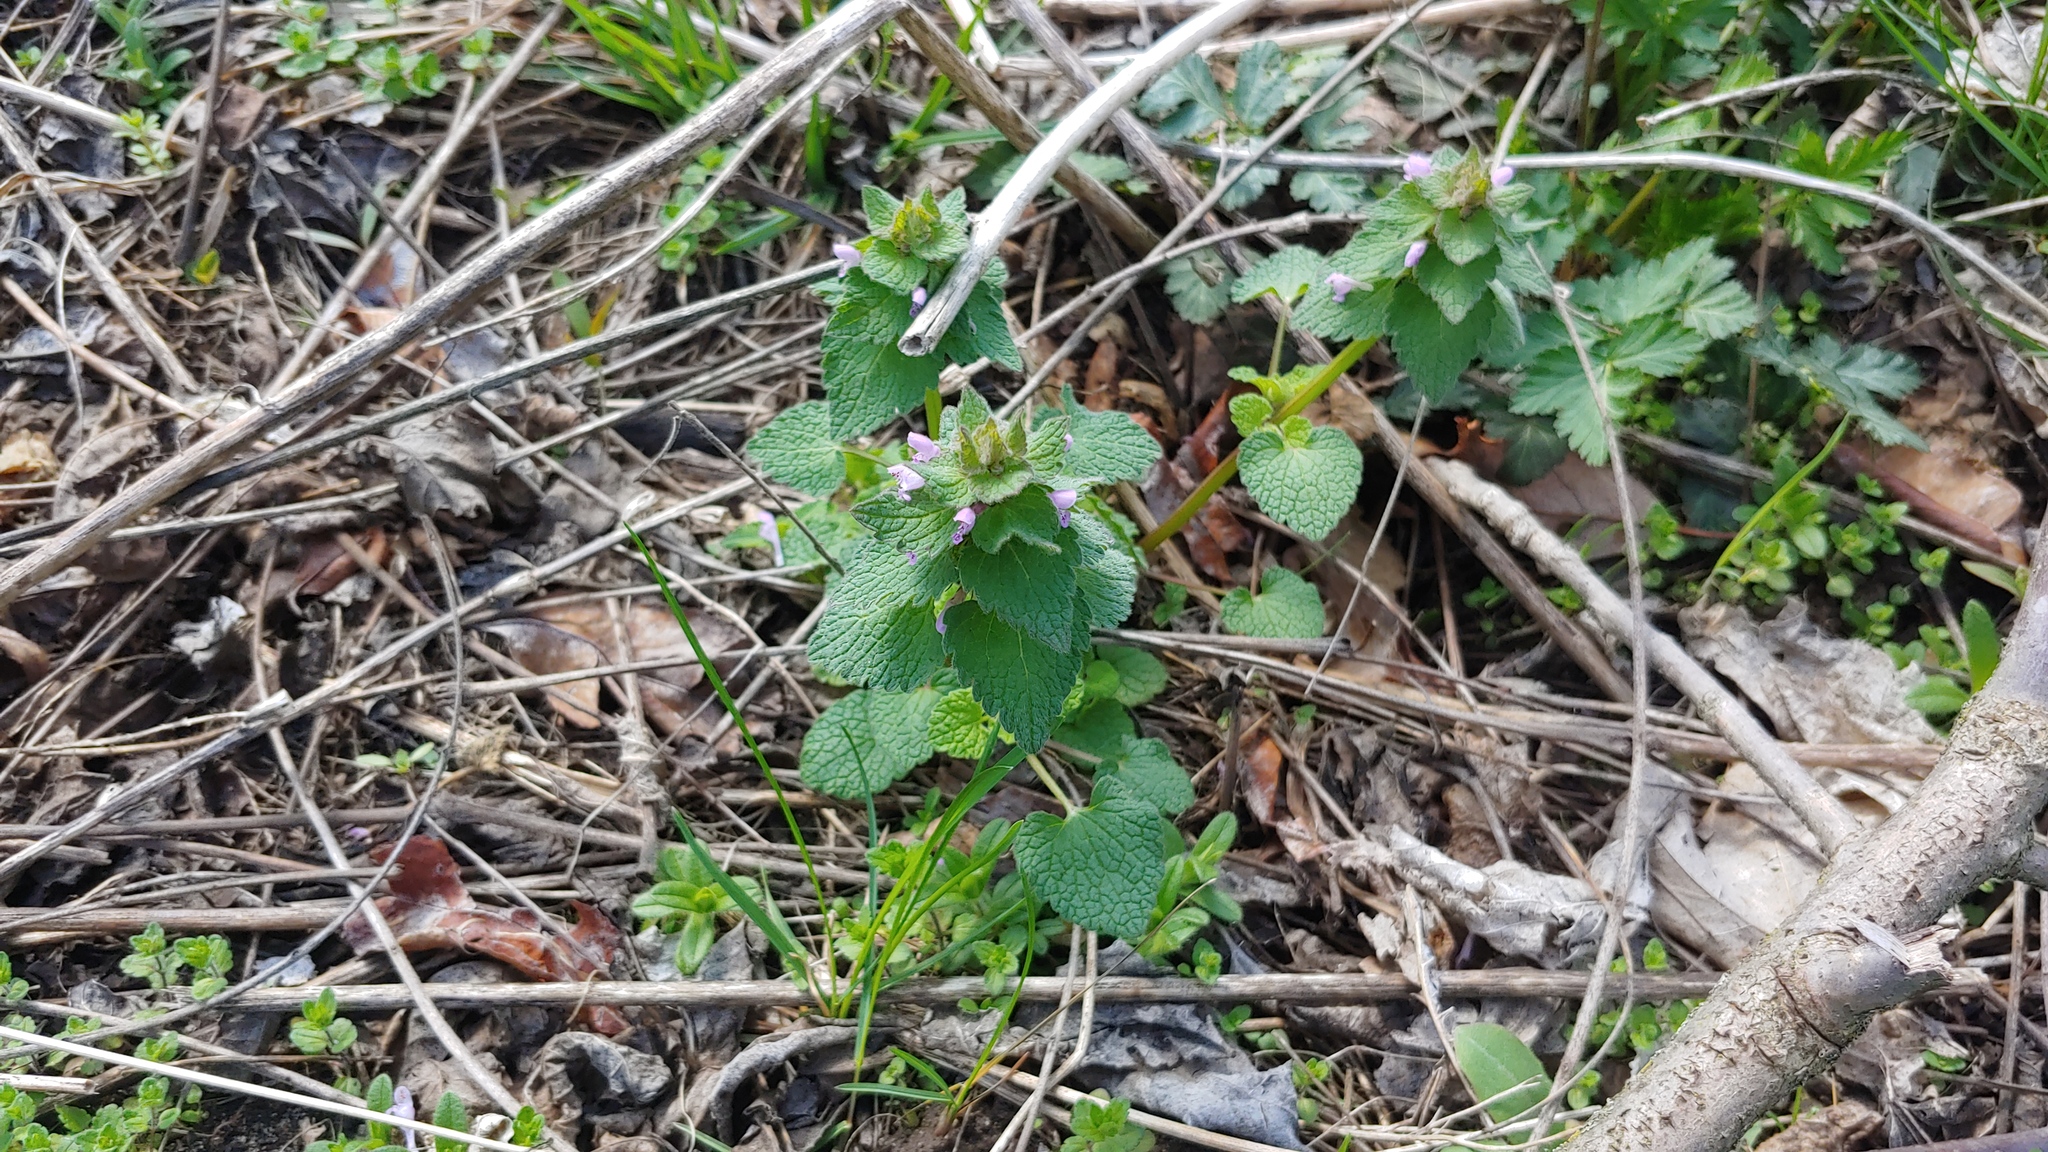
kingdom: Plantae
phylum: Tracheophyta
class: Magnoliopsida
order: Lamiales
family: Lamiaceae
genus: Lamium
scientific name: Lamium purpureum
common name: Red dead-nettle
